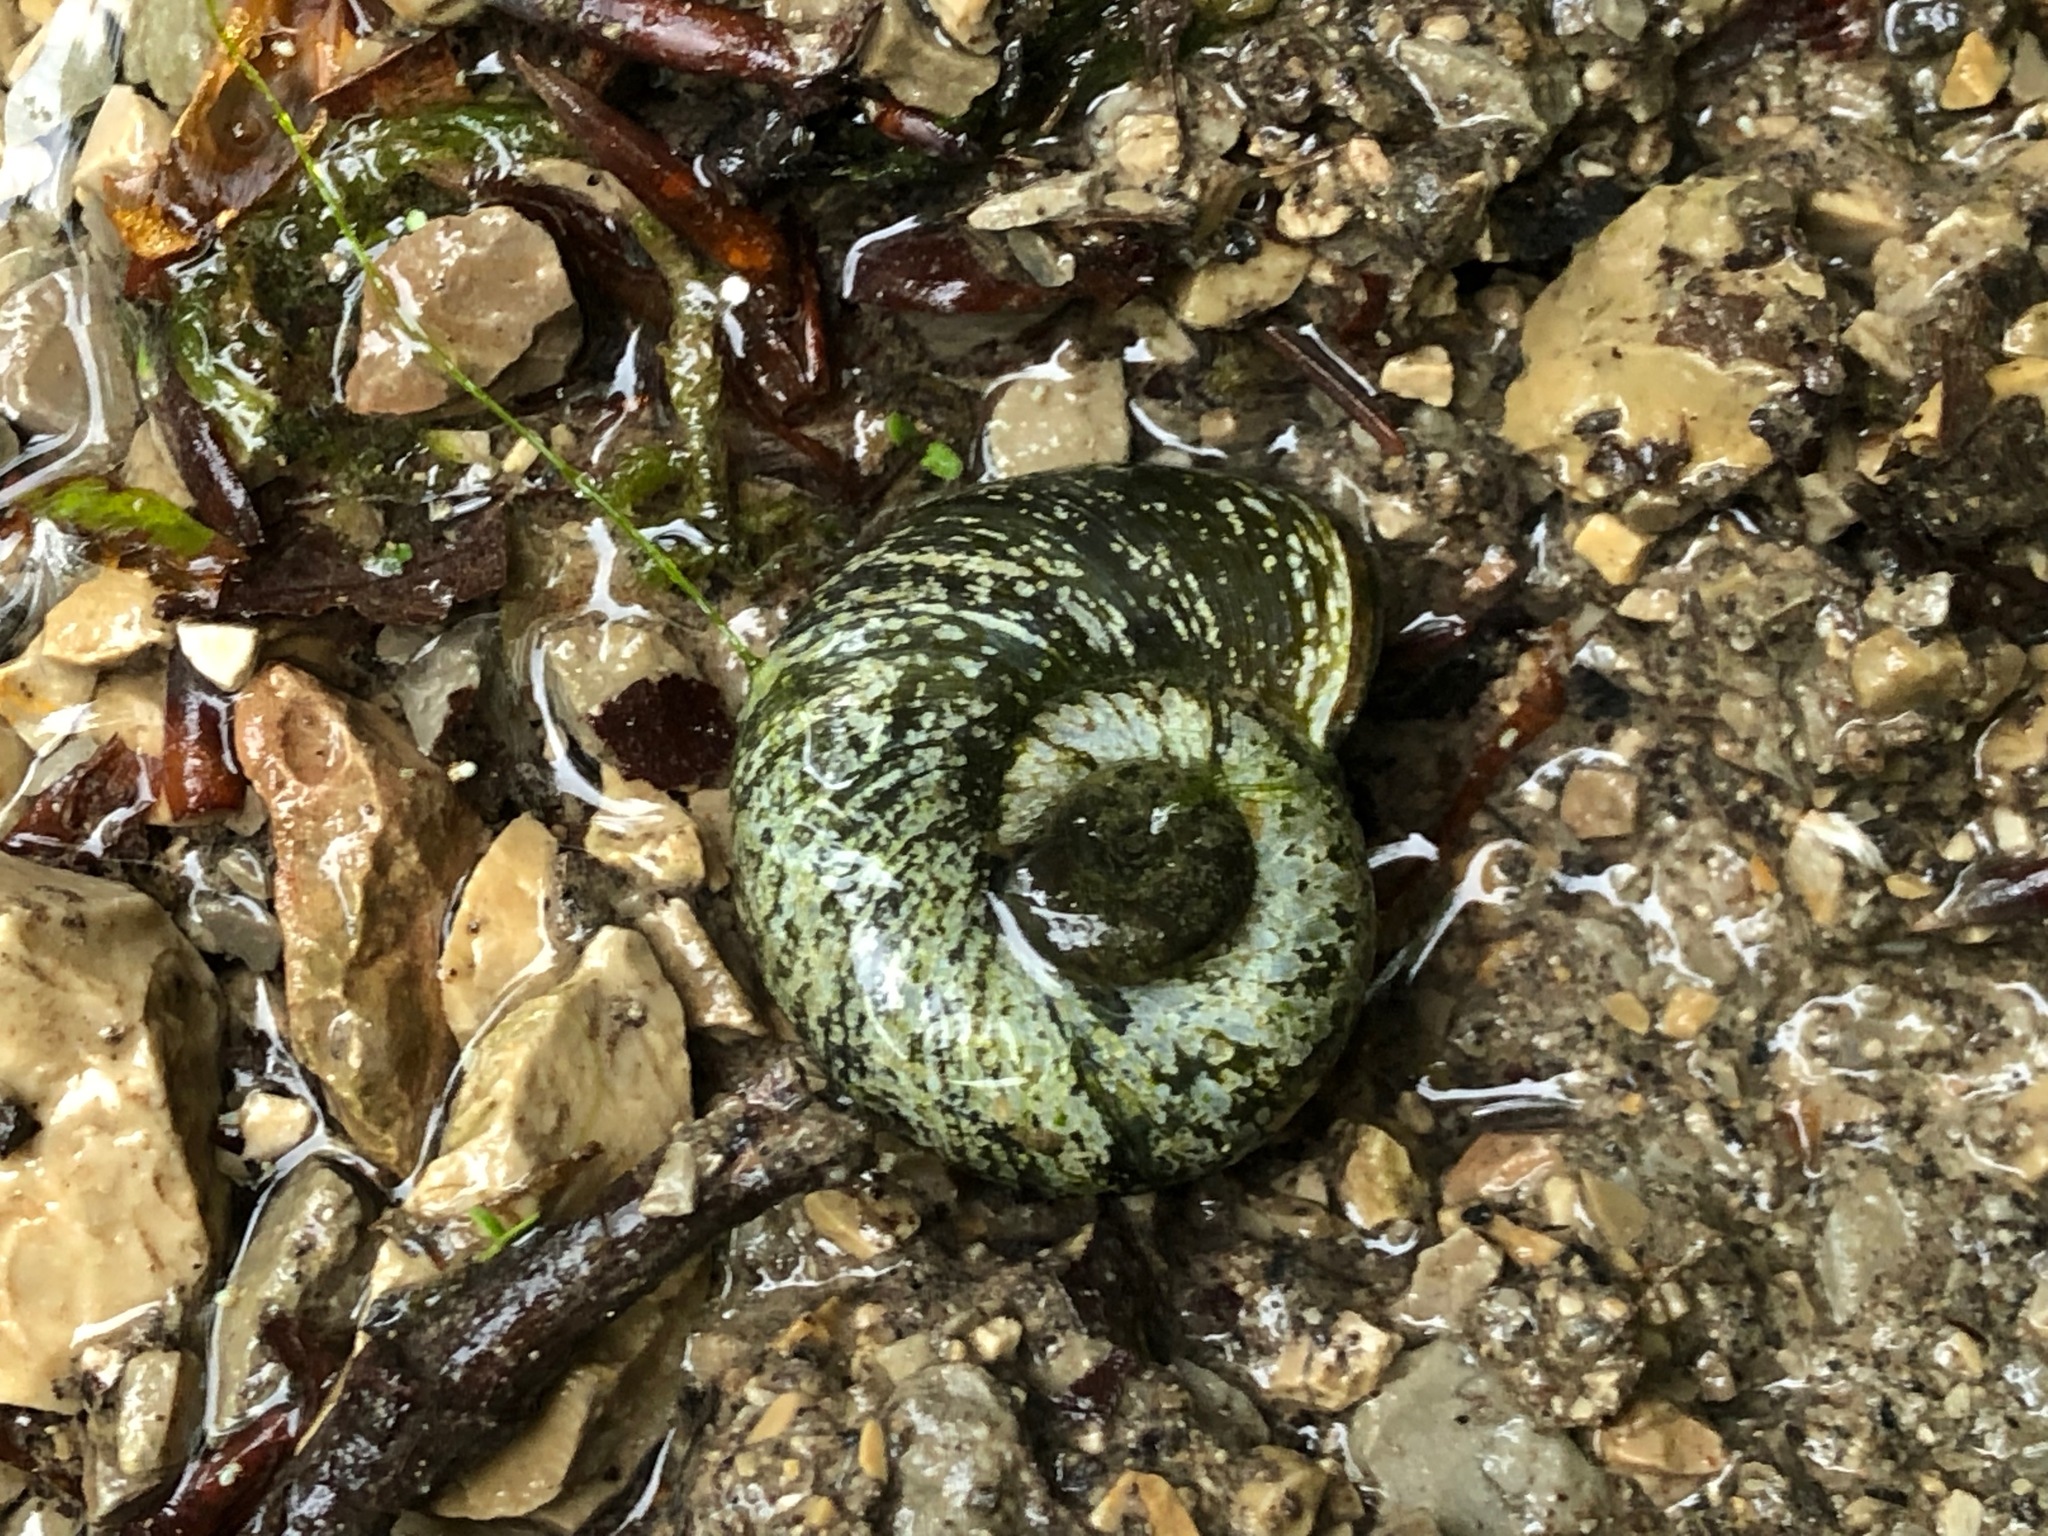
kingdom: Animalia
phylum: Mollusca
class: Gastropoda
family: Planorbidae
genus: Planorbarius
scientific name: Planorbarius corneus
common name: Great ramshorn
